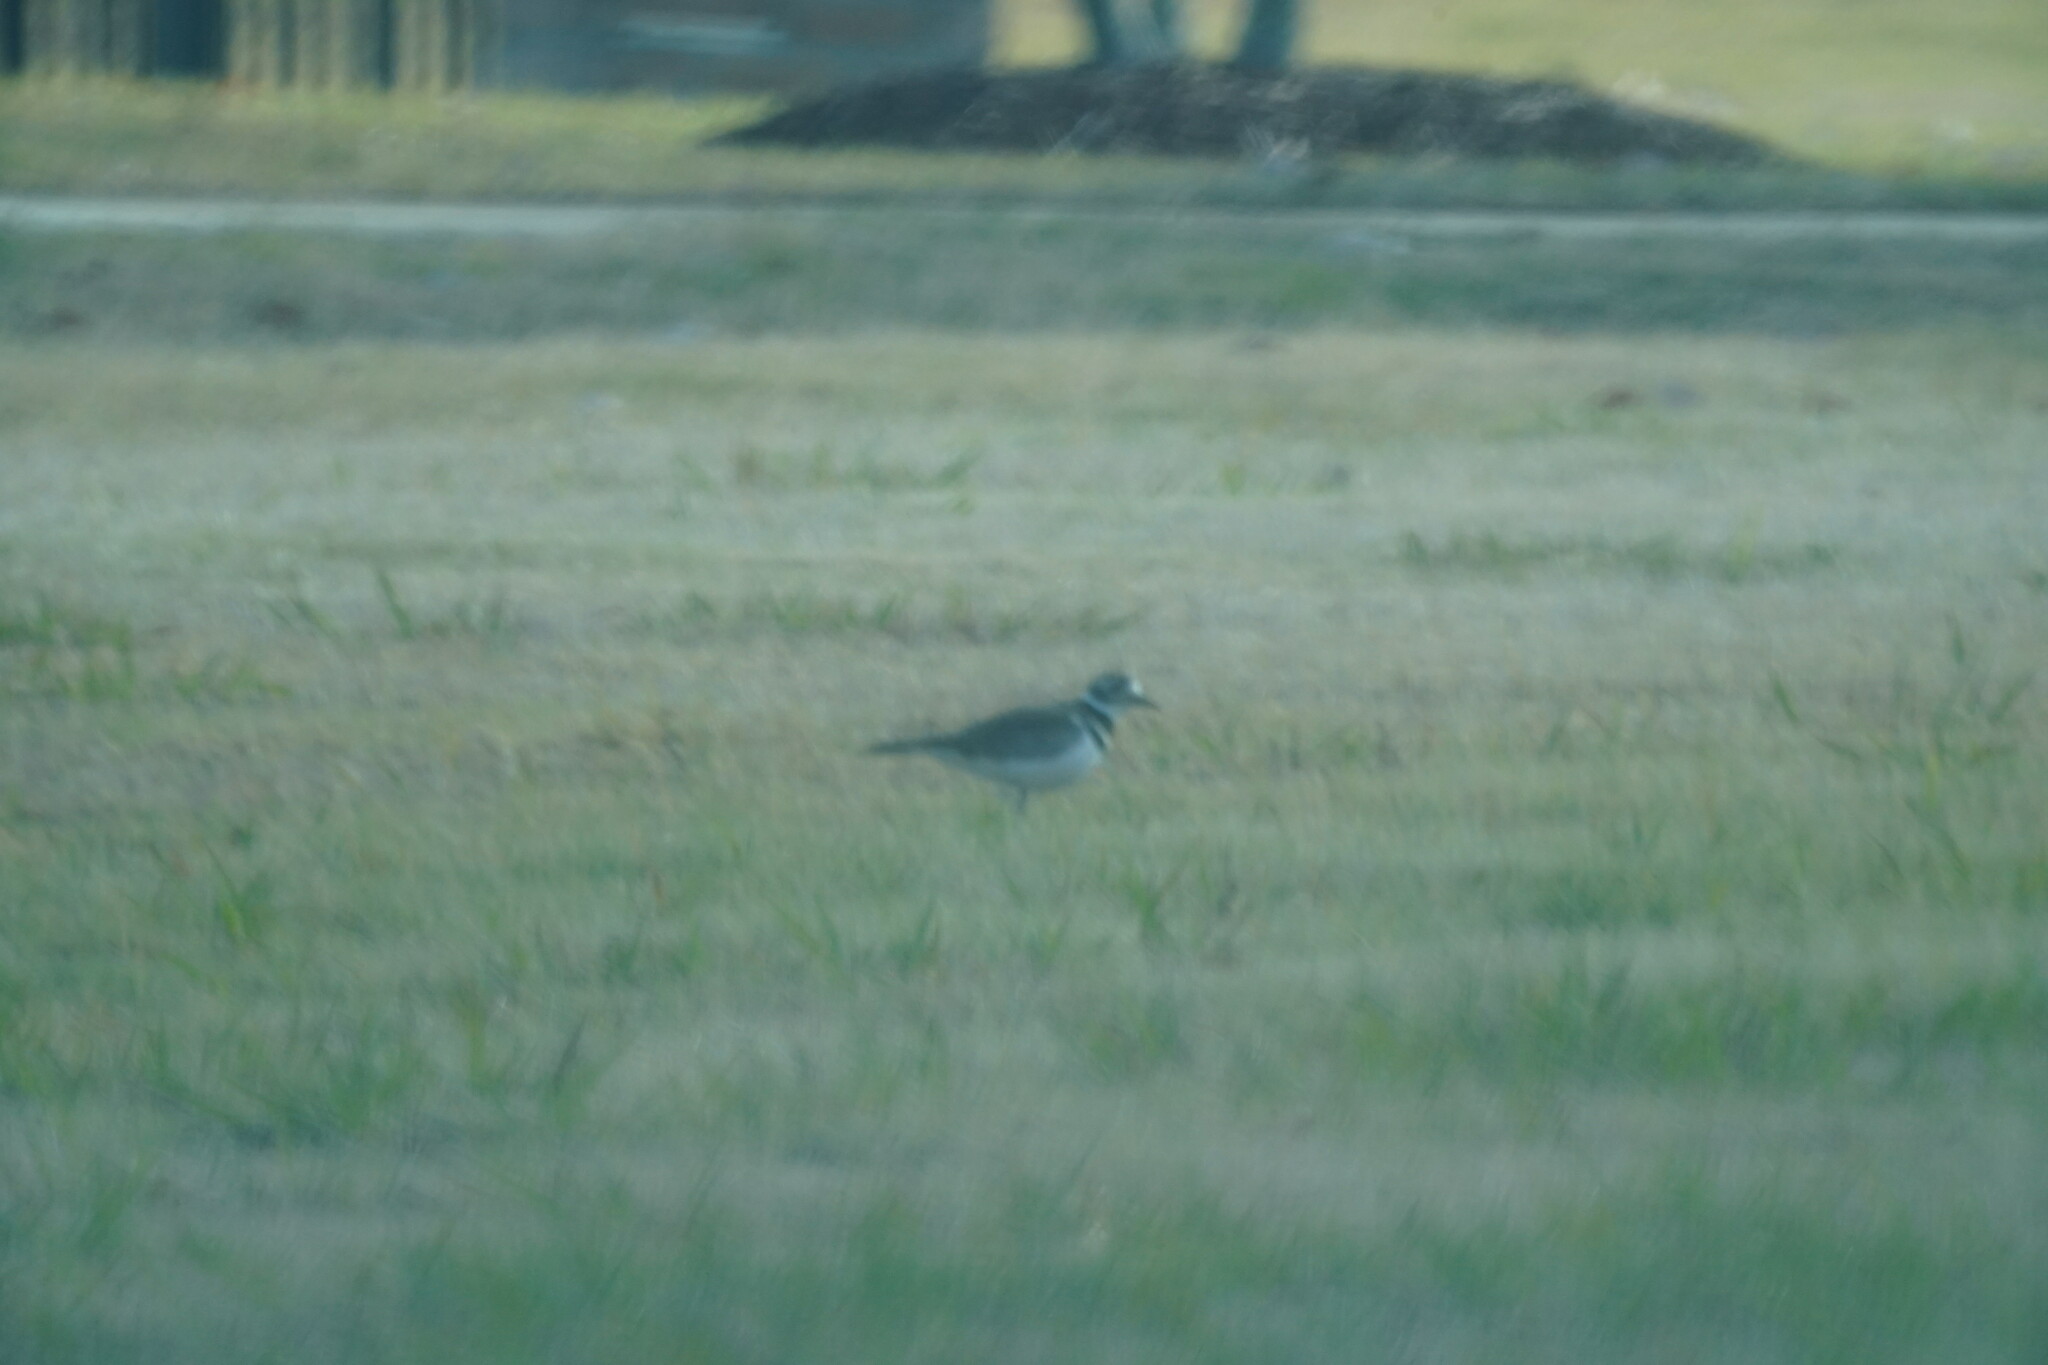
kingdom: Animalia
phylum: Chordata
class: Aves
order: Charadriiformes
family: Charadriidae
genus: Charadrius
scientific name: Charadrius vociferus
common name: Killdeer
